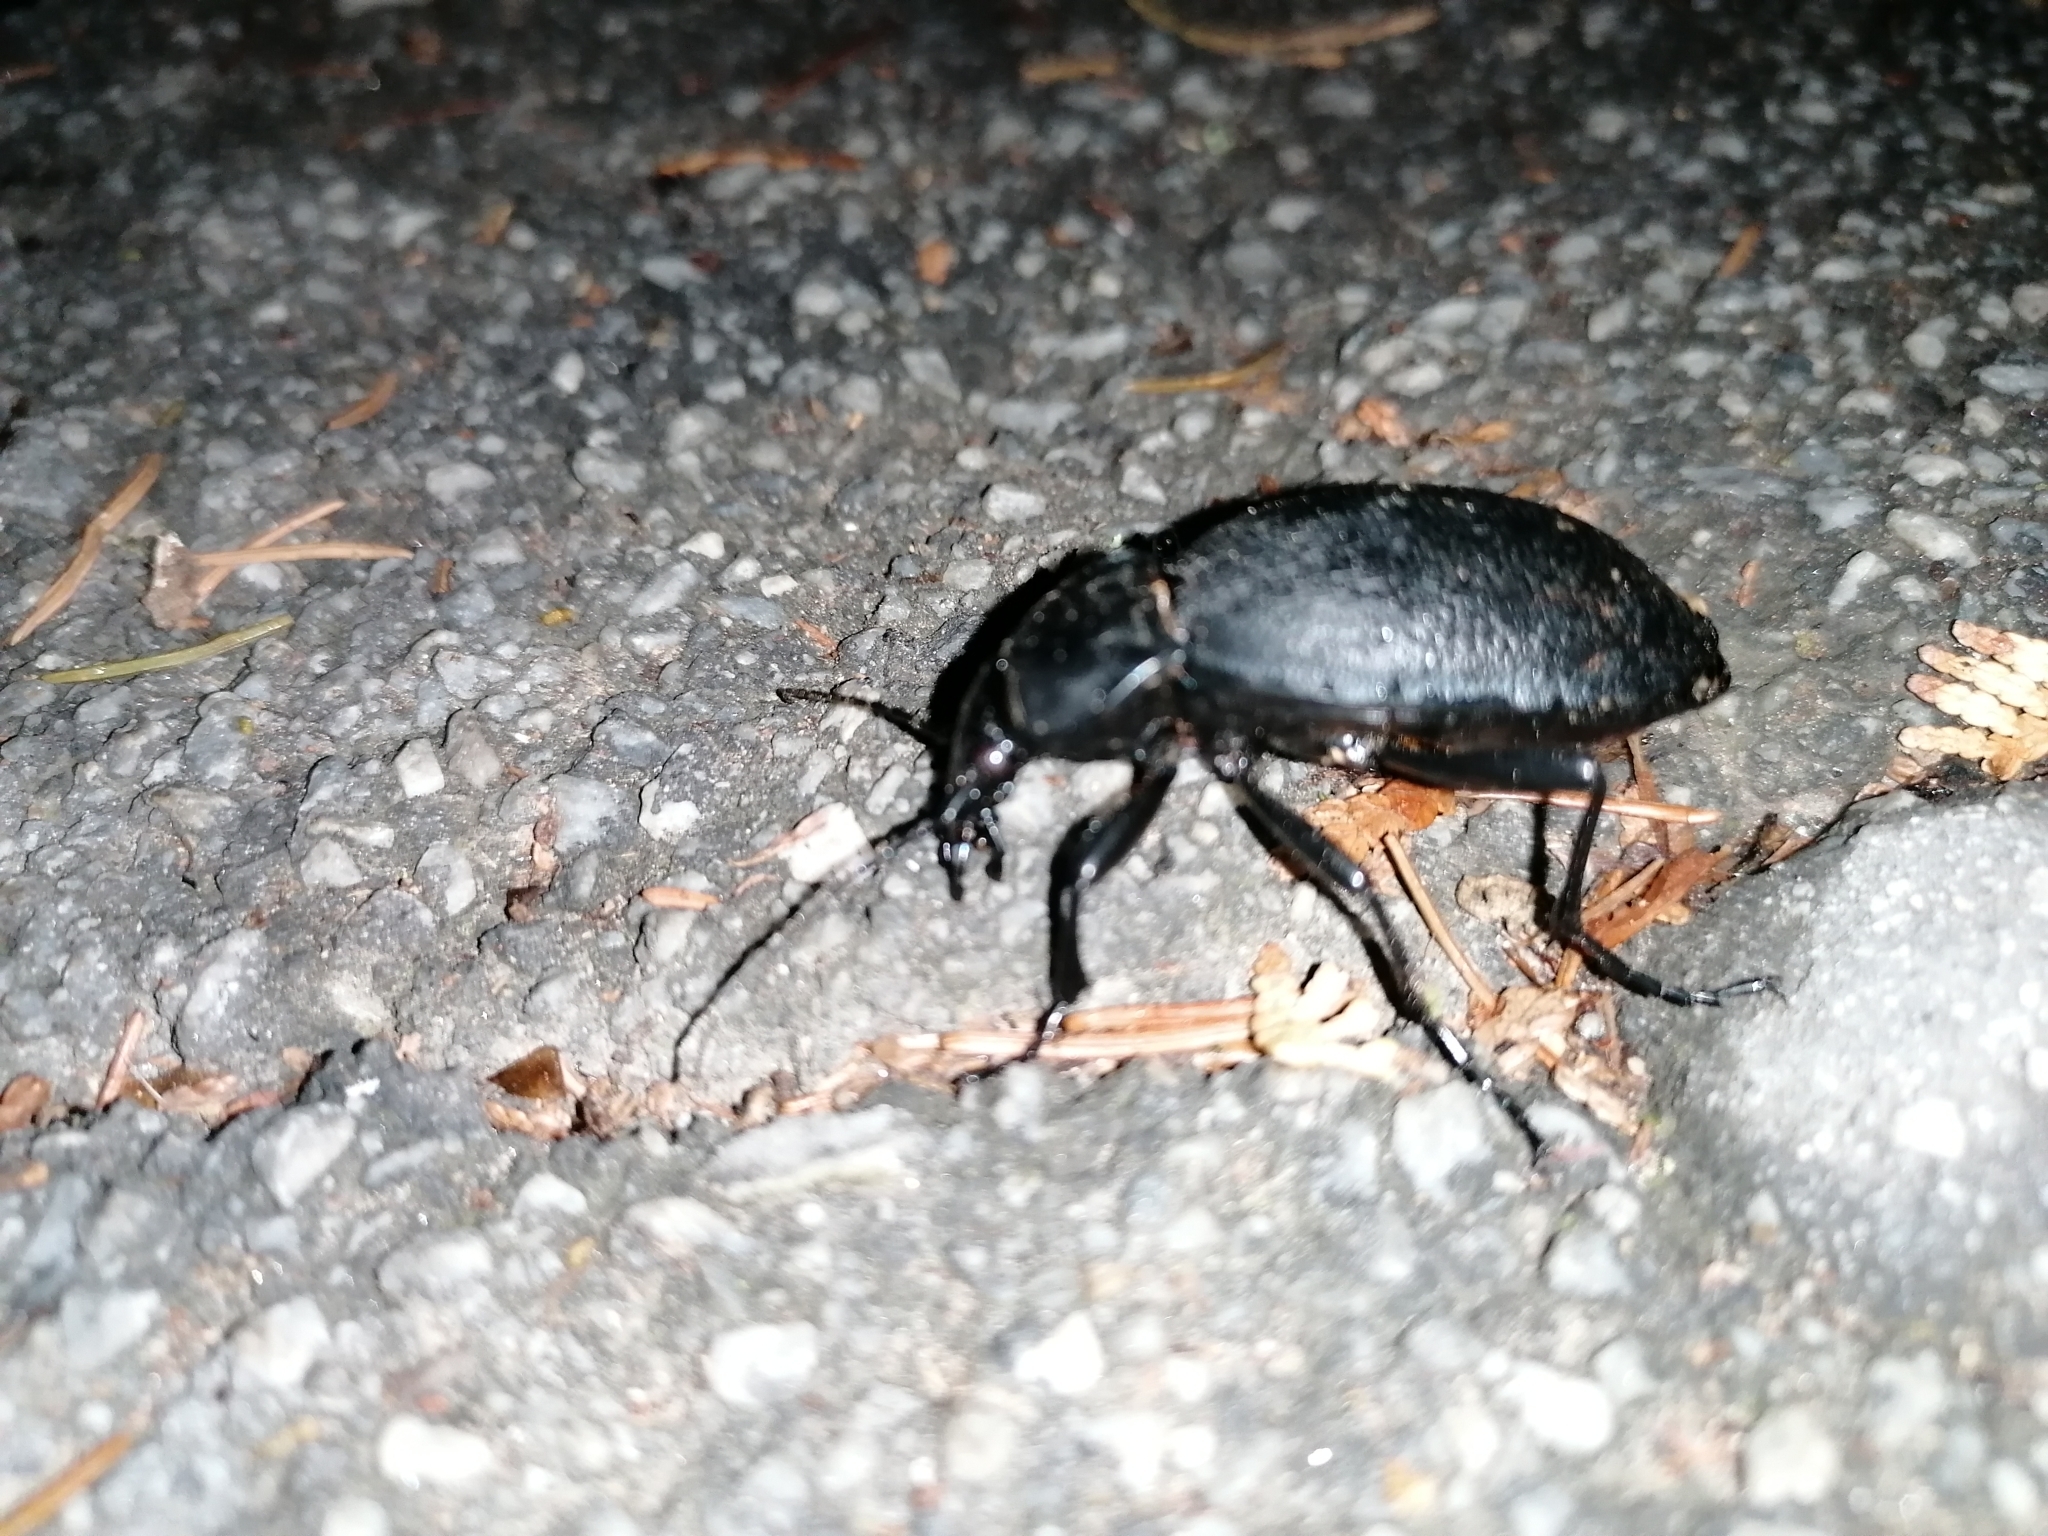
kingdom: Animalia
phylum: Arthropoda
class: Insecta
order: Coleoptera
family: Carabidae
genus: Carabus
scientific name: Carabus coriaceus
